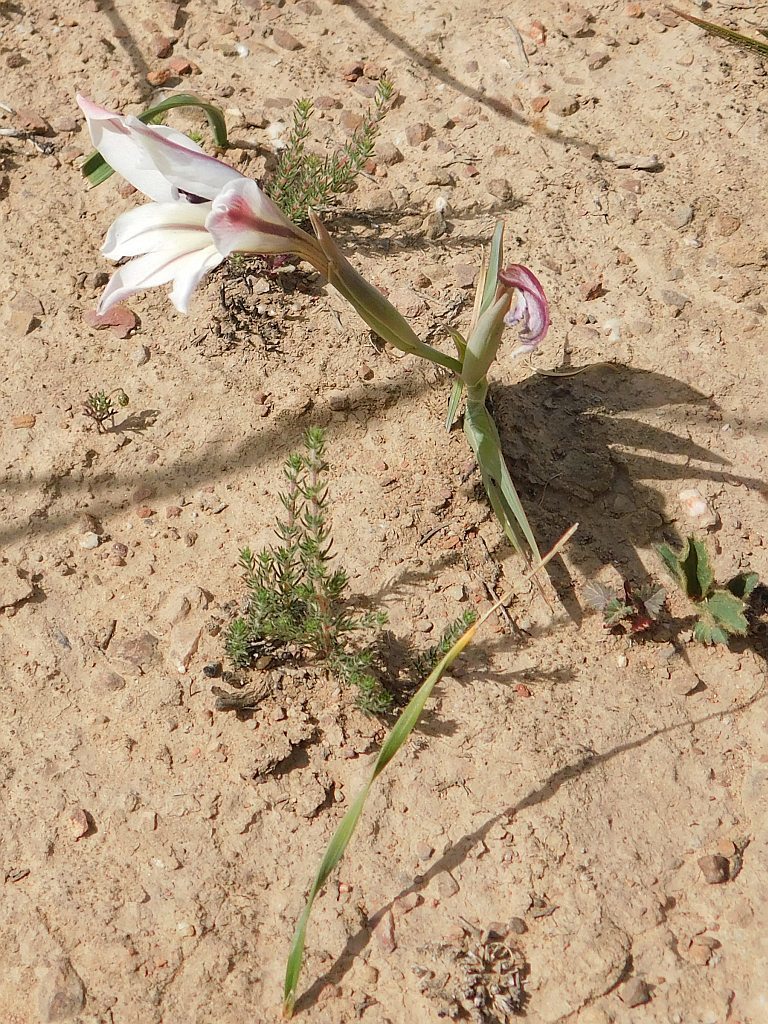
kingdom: Plantae
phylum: Tracheophyta
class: Liliopsida
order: Asparagales
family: Iridaceae
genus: Gladiolus
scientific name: Gladiolus floribundus
